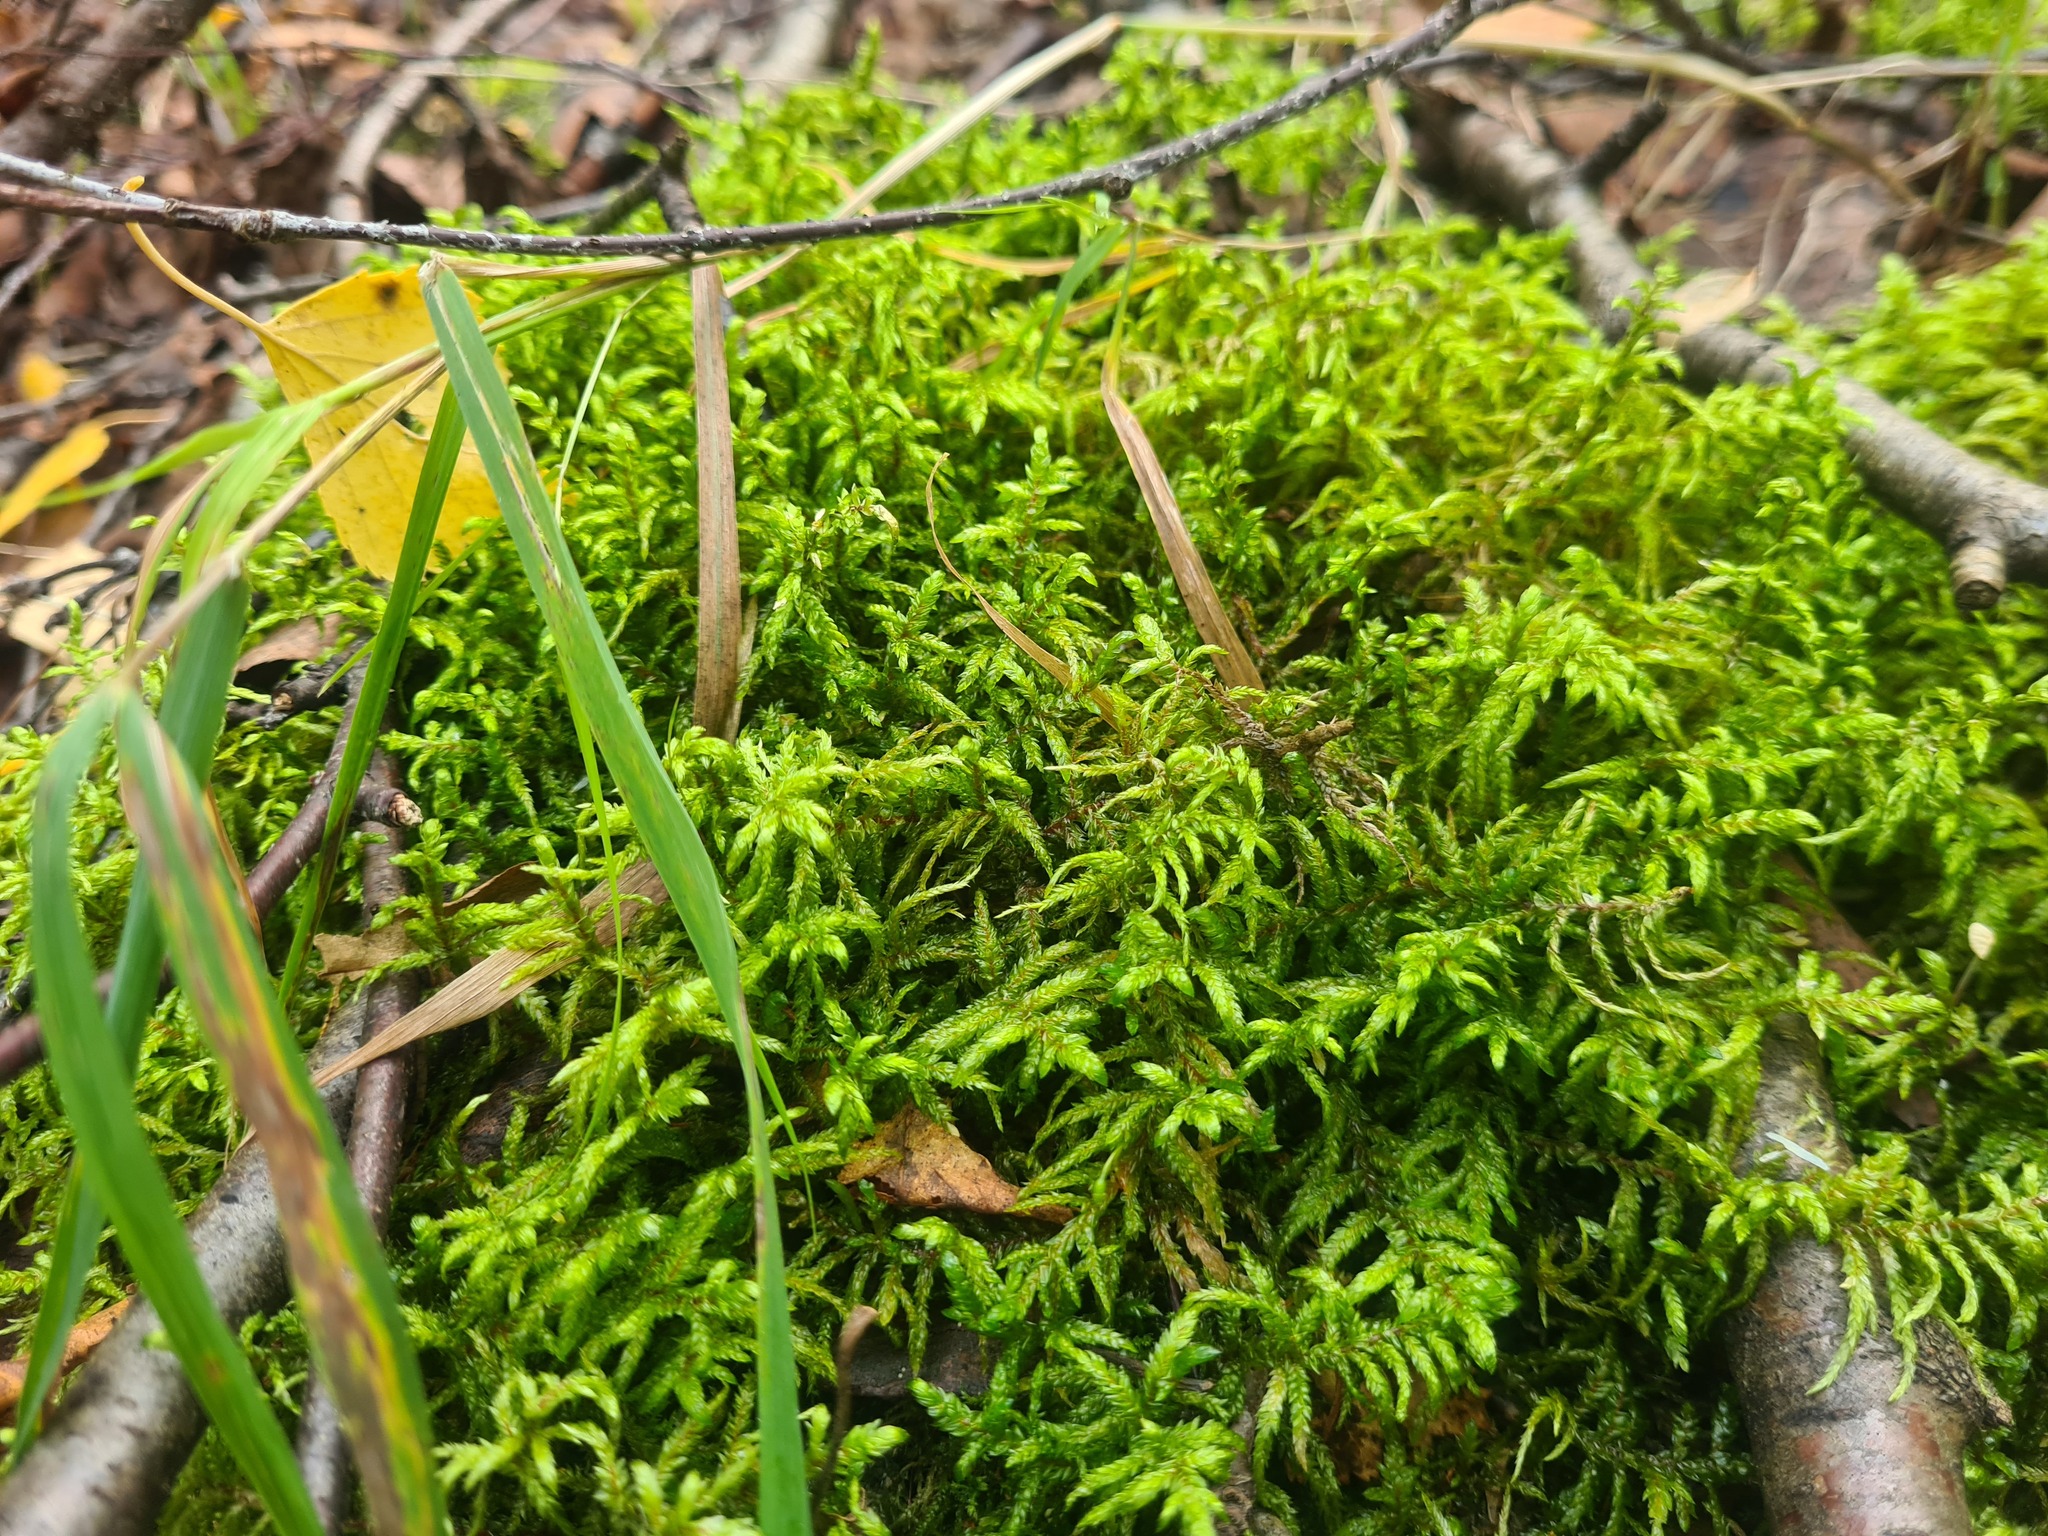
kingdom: Plantae
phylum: Bryophyta
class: Bryopsida
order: Hypnales
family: Hylocomiaceae
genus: Pleurozium
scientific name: Pleurozium schreberi
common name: Red-stemmed feather moss
